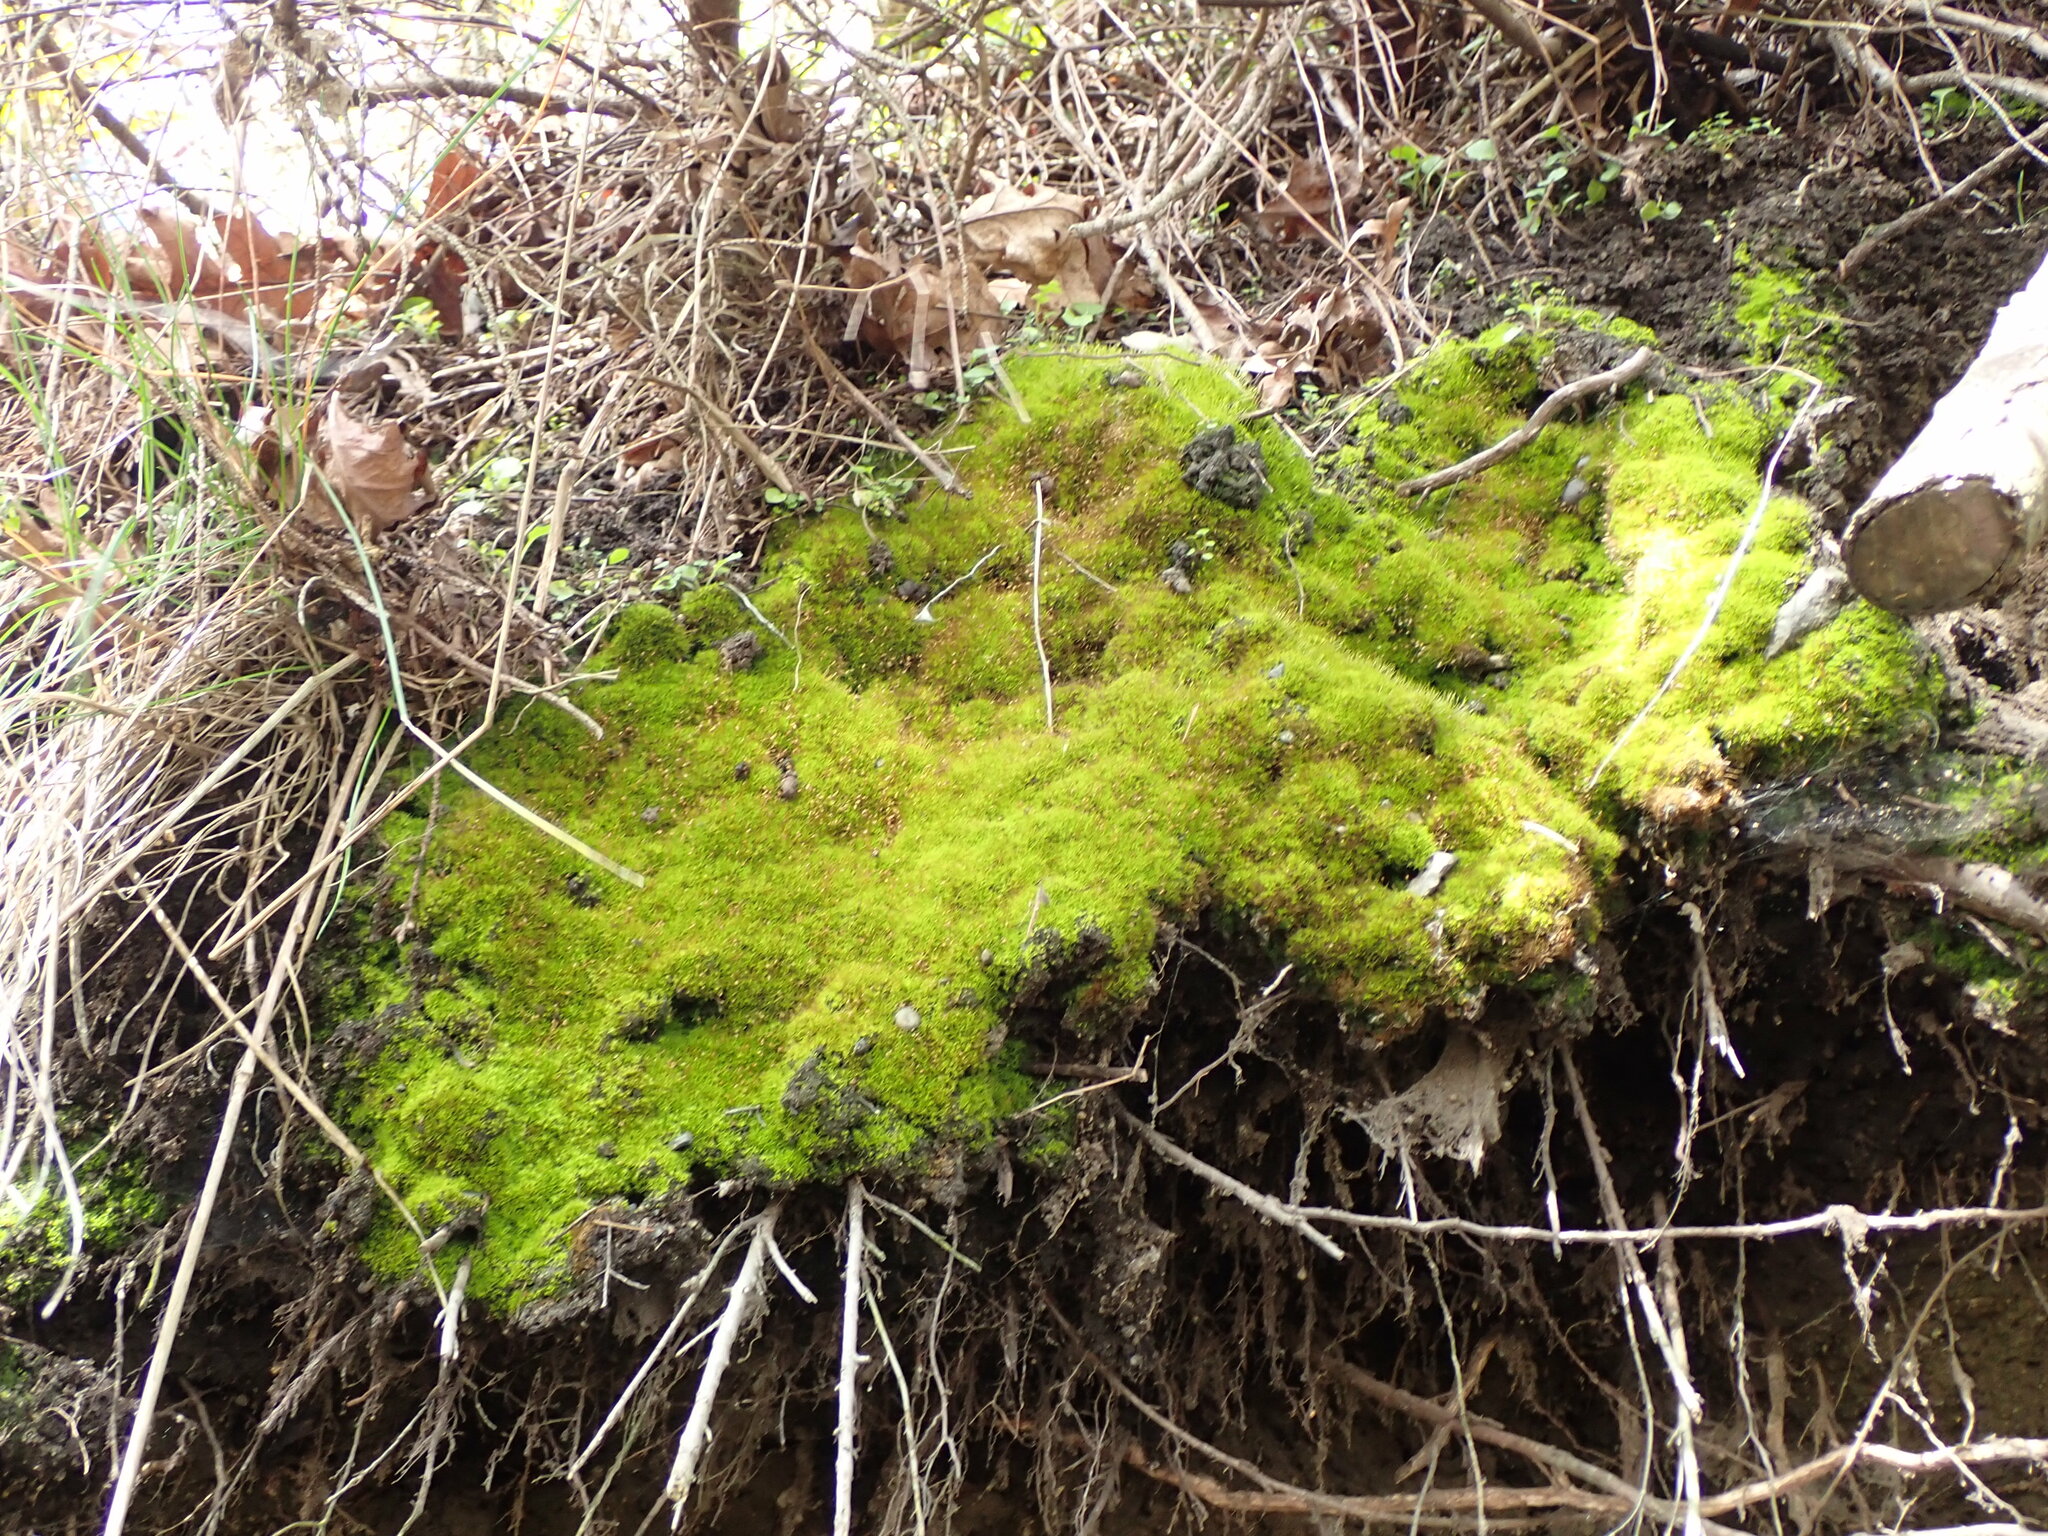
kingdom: Plantae
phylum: Bryophyta
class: Bryopsida
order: Pottiales
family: Pottiaceae
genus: Weissia
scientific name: Weissia controversa
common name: Green-tufted stubble moss
